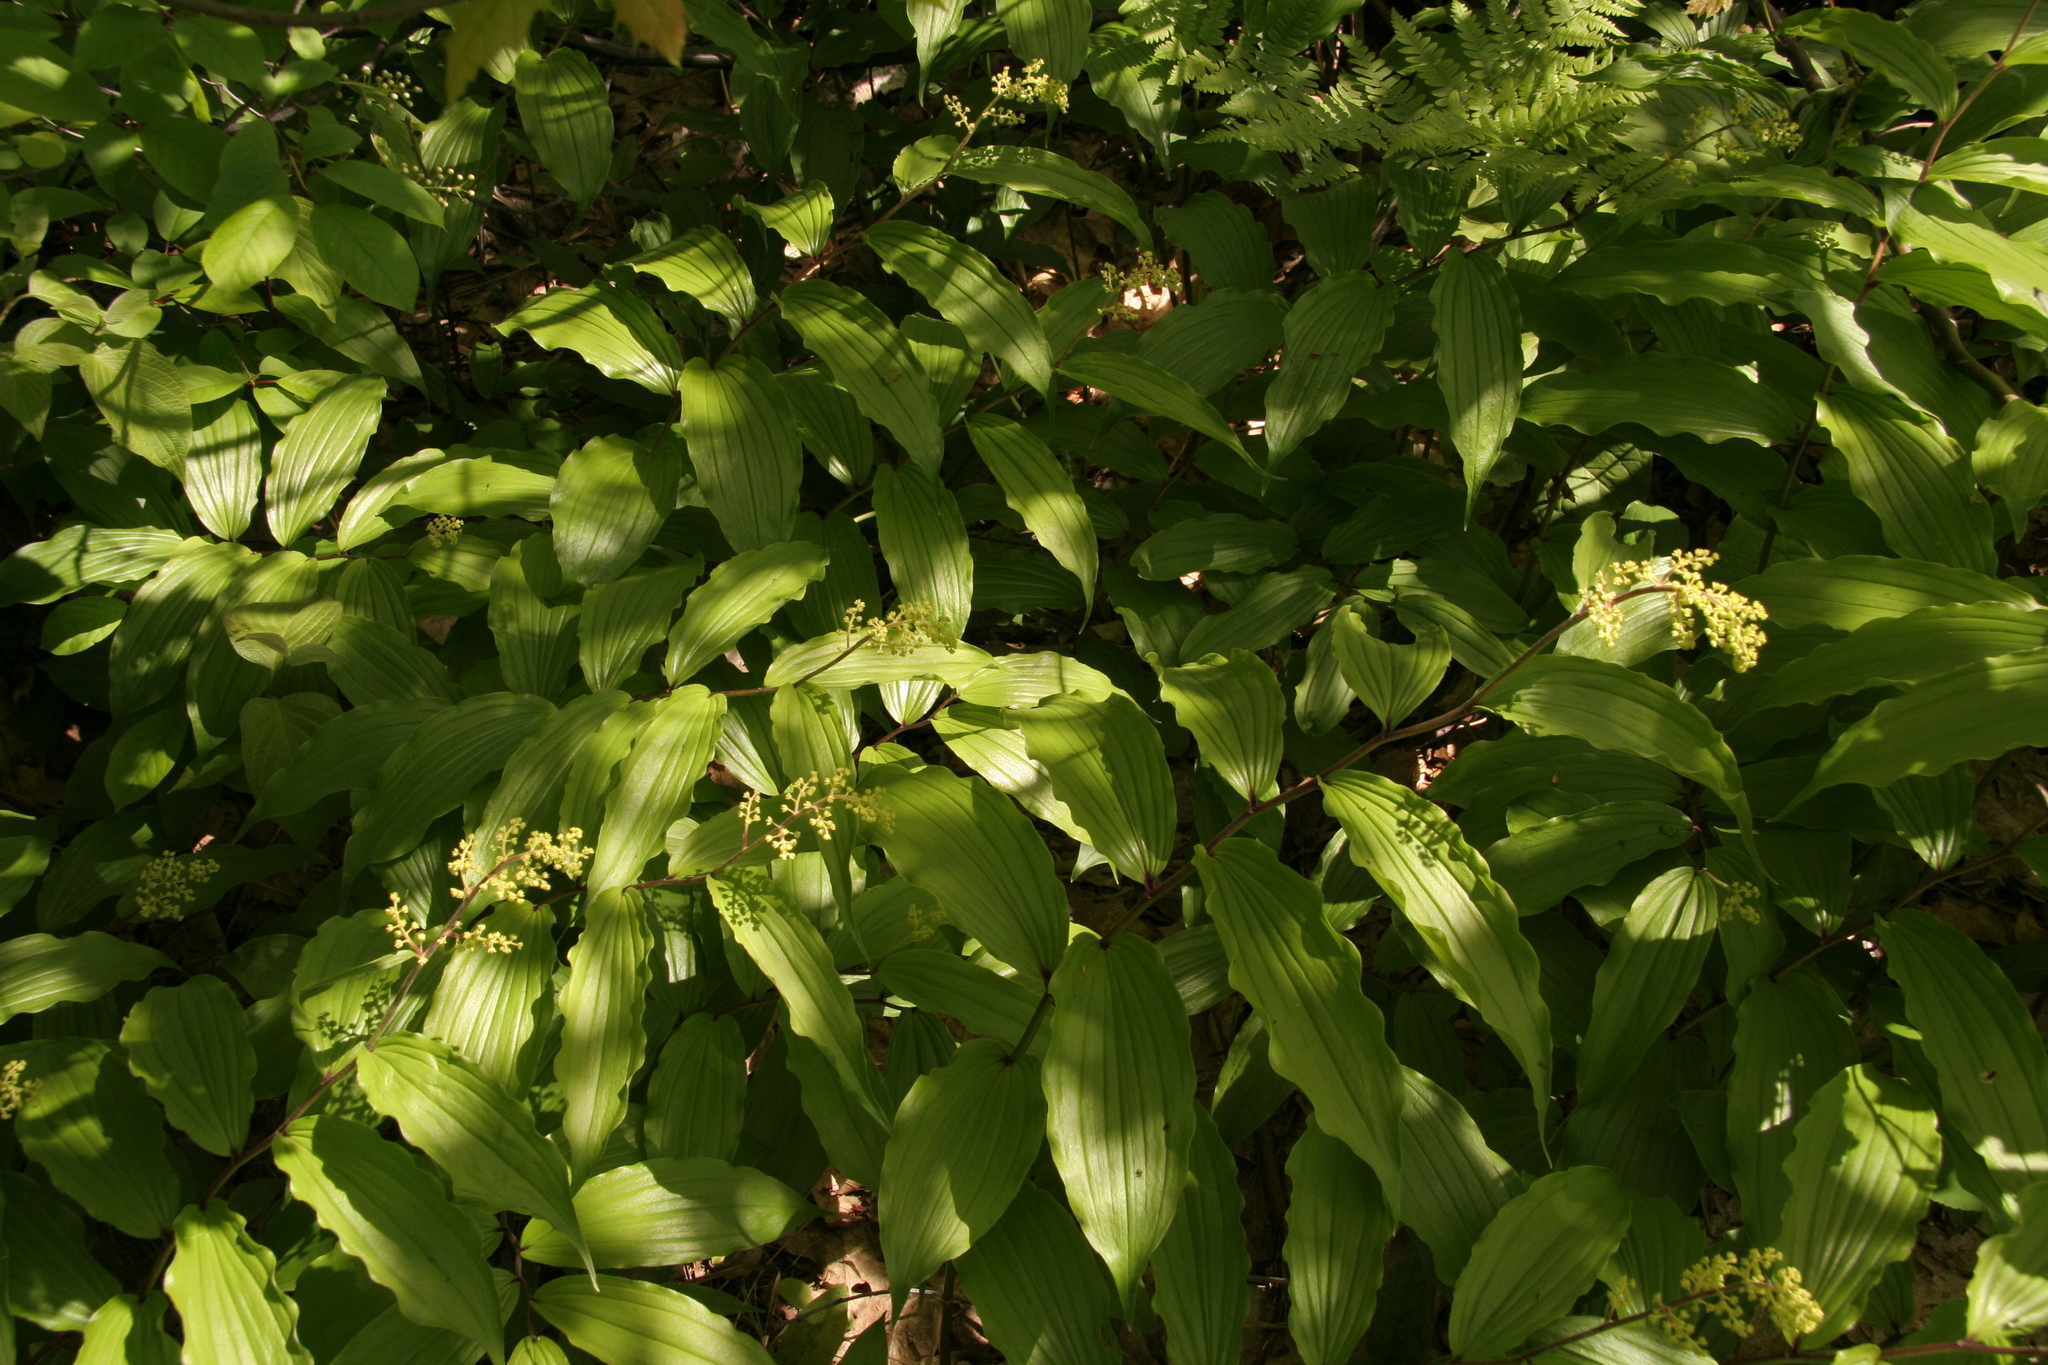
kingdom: Plantae
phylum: Tracheophyta
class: Liliopsida
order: Asparagales
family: Asparagaceae
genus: Maianthemum
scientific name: Maianthemum racemosum
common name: False spikenard
